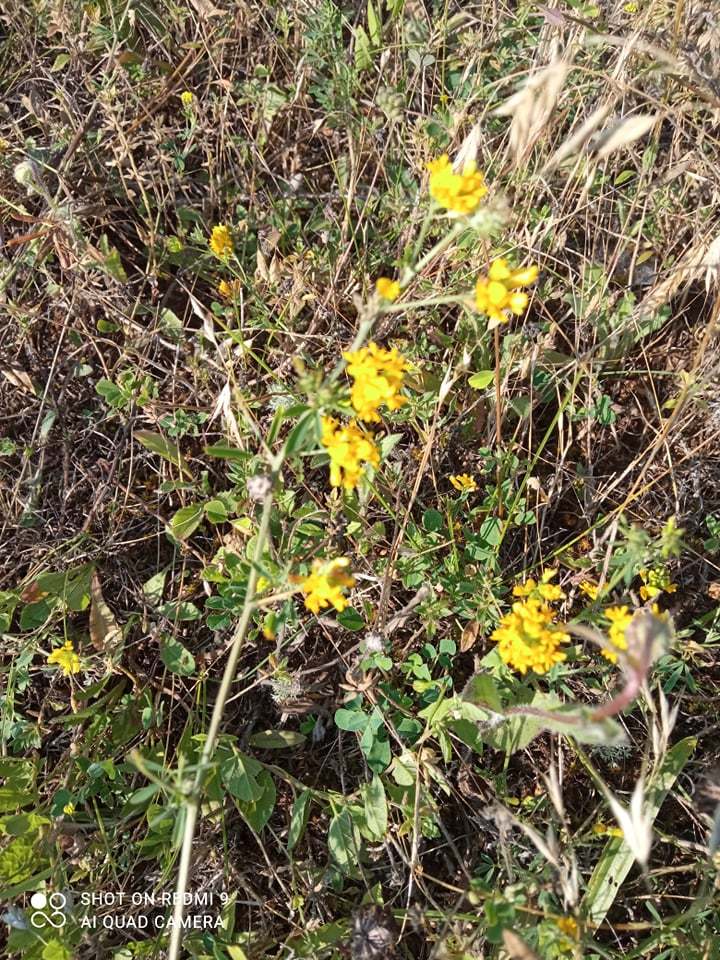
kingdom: Plantae
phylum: Tracheophyta
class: Magnoliopsida
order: Fabales
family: Fabaceae
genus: Medicago
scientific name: Medicago falcata
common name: Sickle medick
